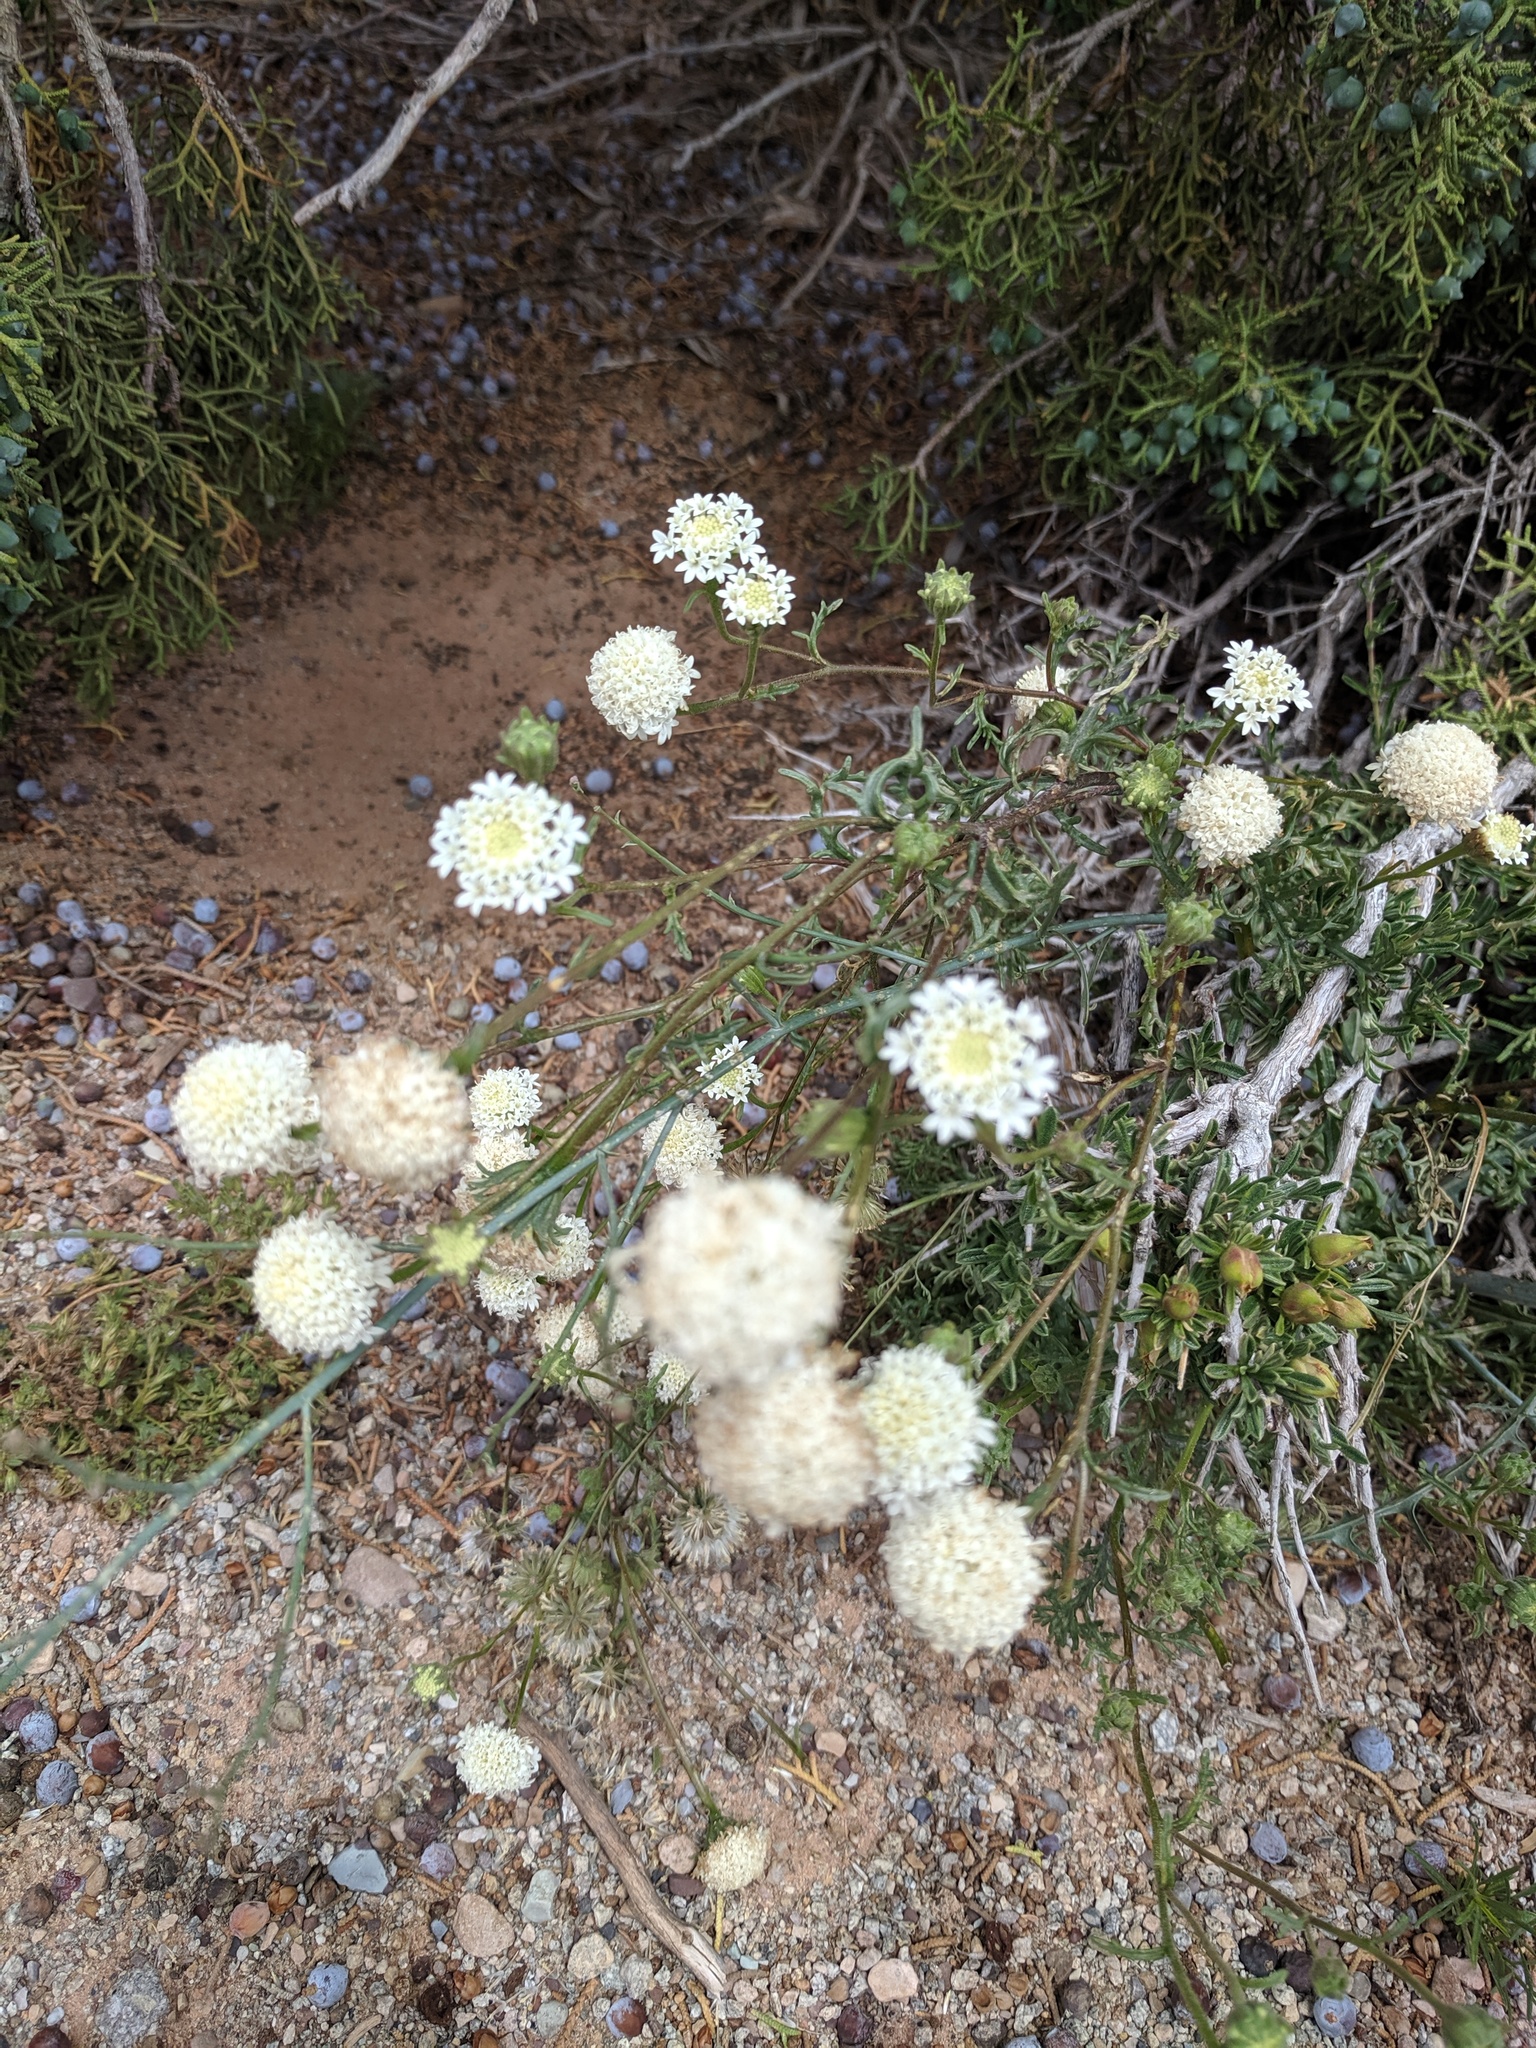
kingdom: Plantae
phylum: Tracheophyta
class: Magnoliopsida
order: Asterales
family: Asteraceae
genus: Chaenactis
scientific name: Chaenactis stevioides
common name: Desert pincushion
